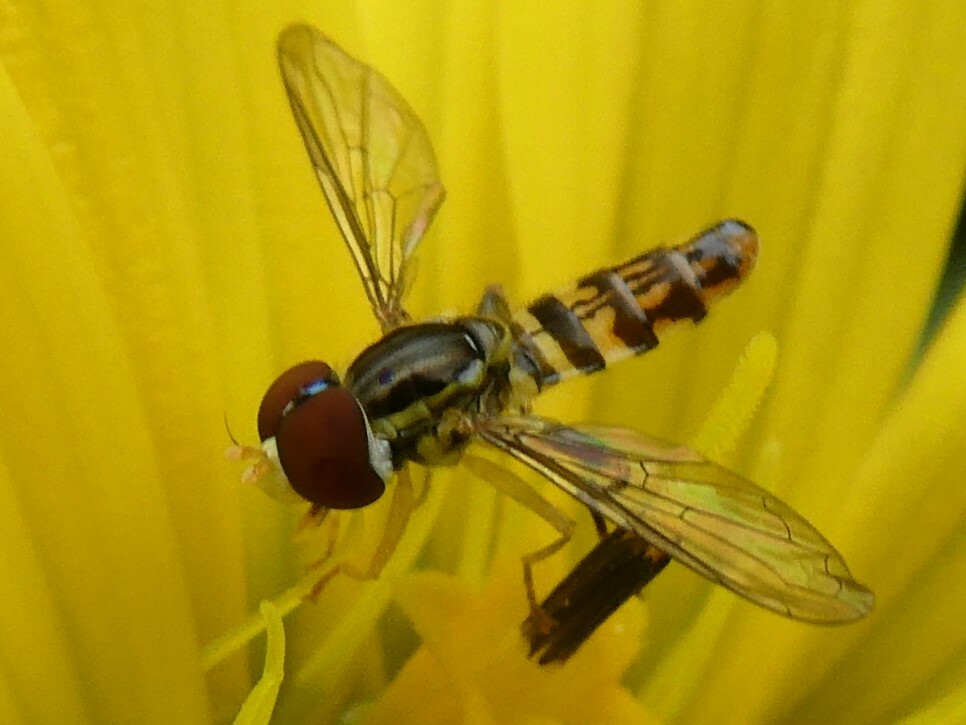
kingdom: Animalia
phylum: Arthropoda
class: Insecta
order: Diptera
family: Syrphidae
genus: Toxomerus
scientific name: Toxomerus geminatus
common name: Eastern calligrapher
